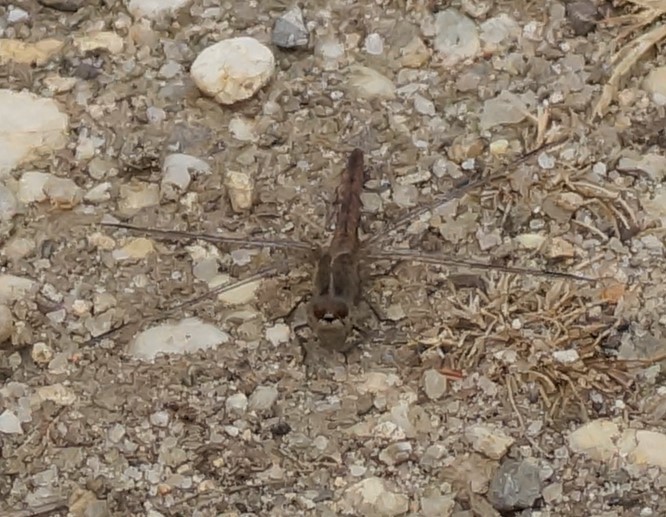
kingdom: Animalia
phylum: Arthropoda
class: Insecta
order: Odonata
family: Libellulidae
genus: Diplacodes
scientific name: Diplacodes bipunctata
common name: Red percher dragonfly
